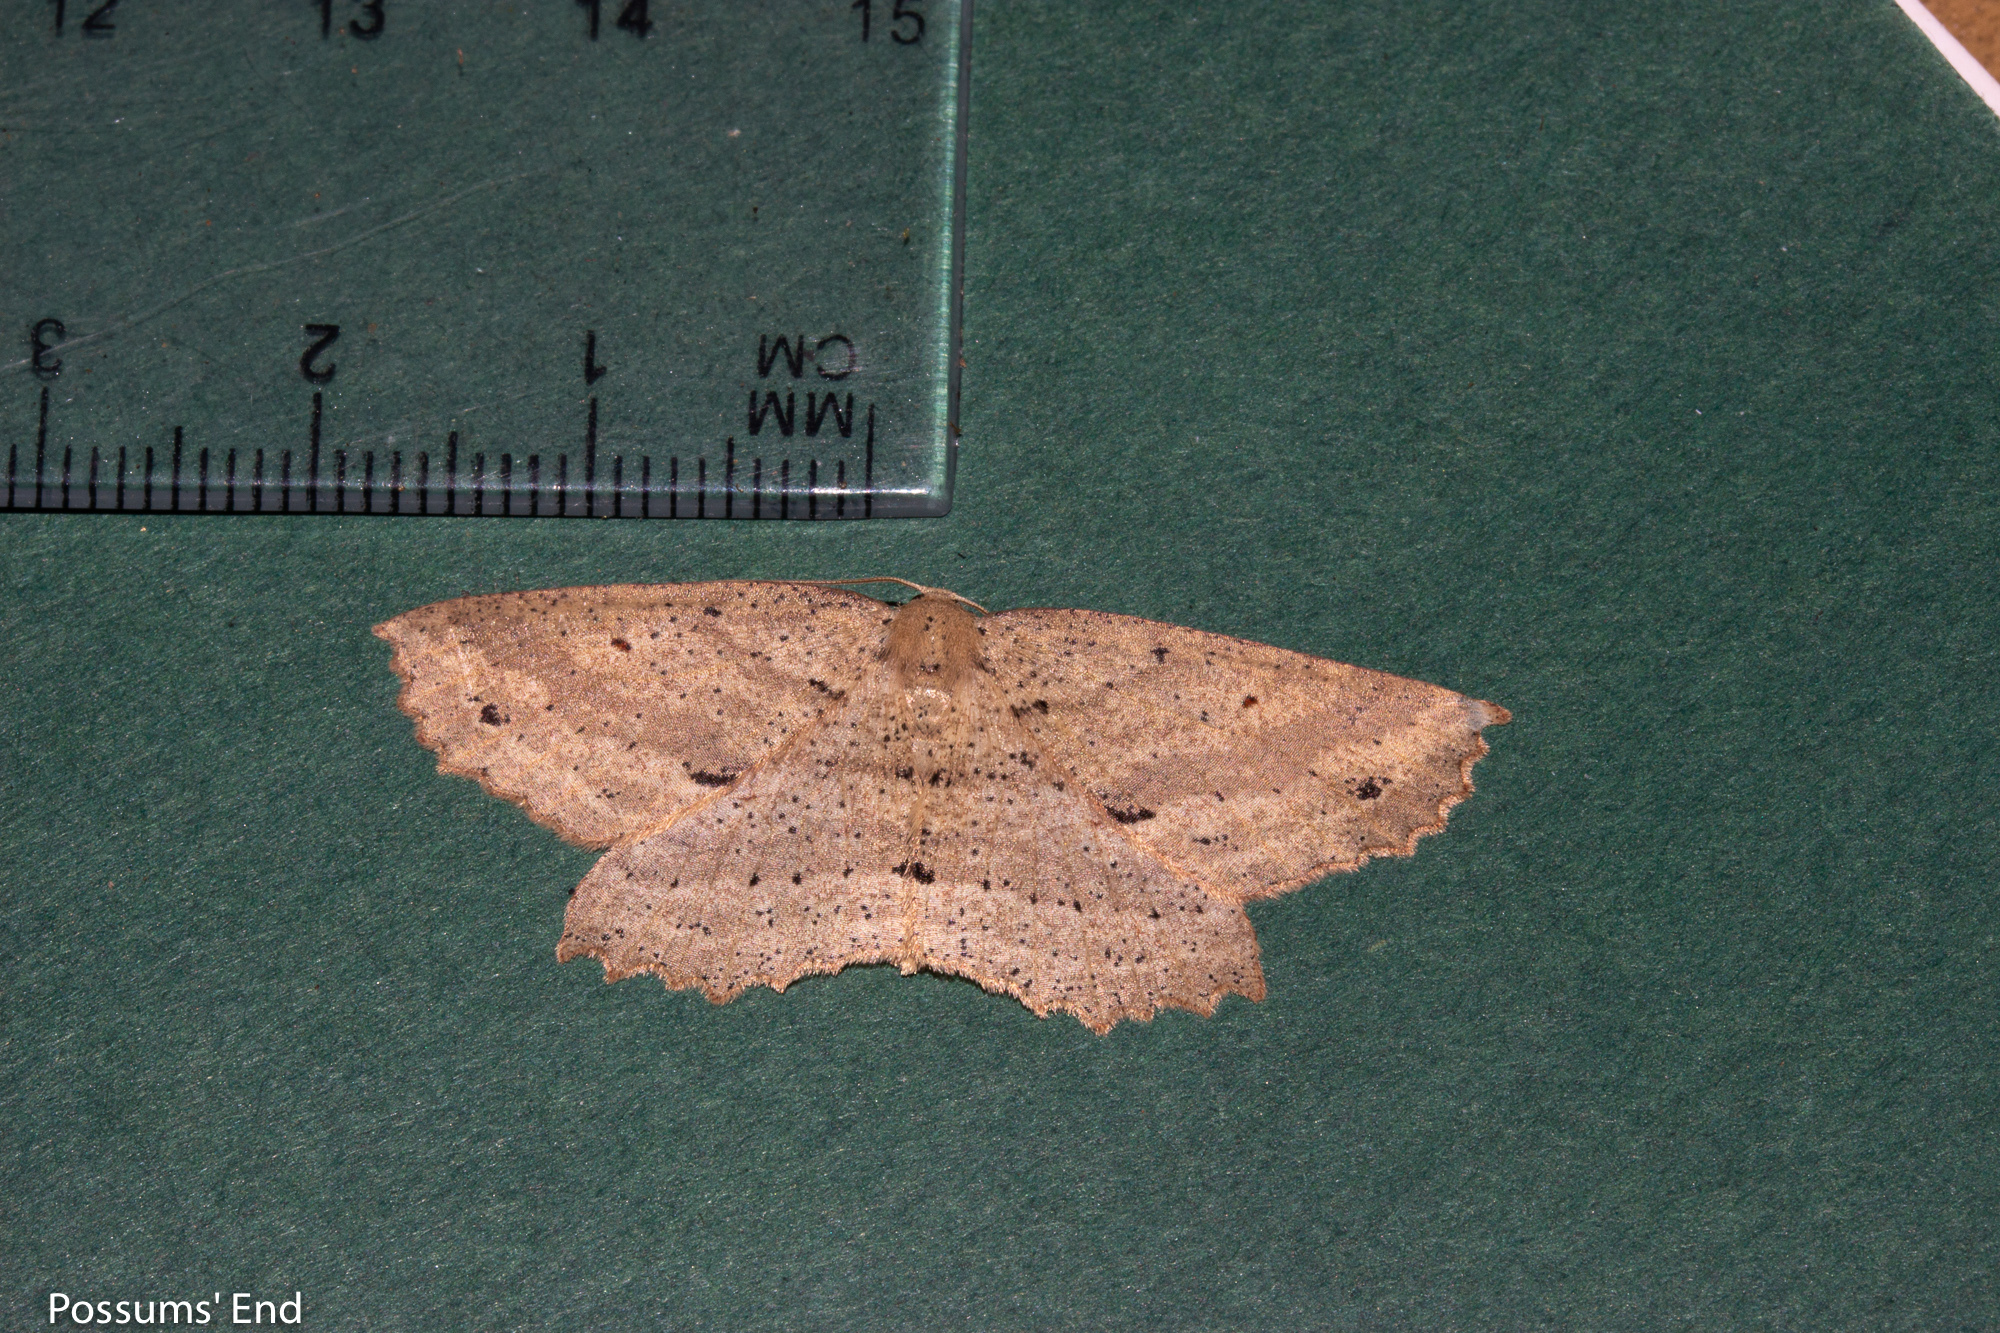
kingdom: Animalia
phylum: Arthropoda
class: Insecta
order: Lepidoptera
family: Geometridae
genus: Xyridacma
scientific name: Xyridacma veronicae
